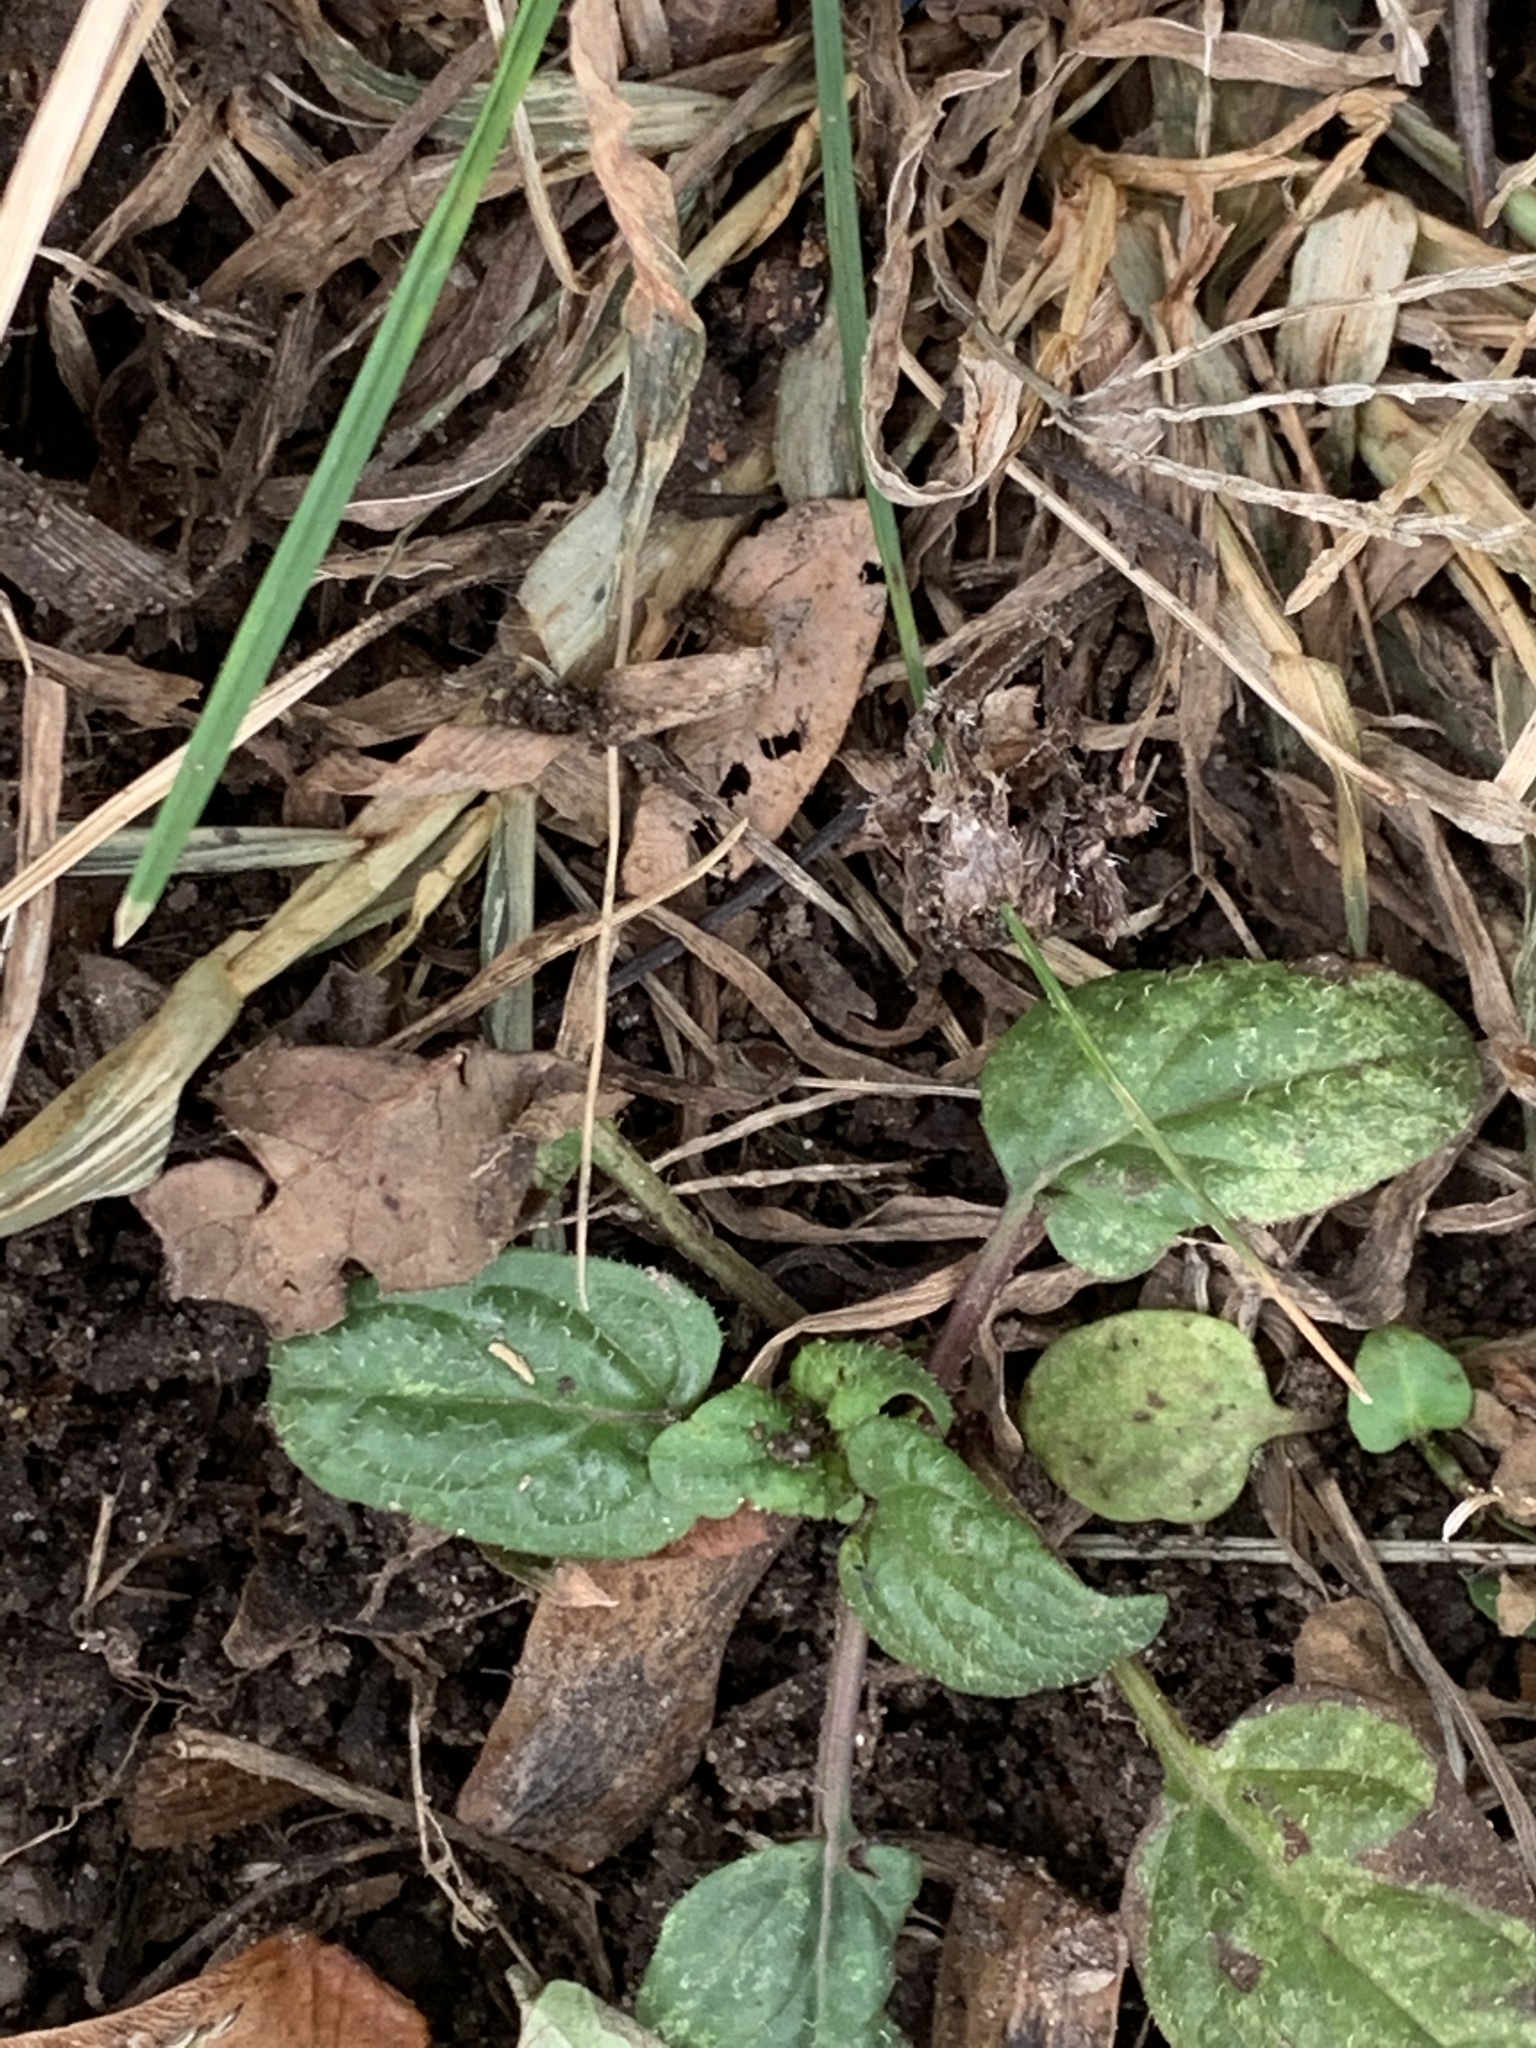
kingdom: Plantae
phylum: Tracheophyta
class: Magnoliopsida
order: Lamiales
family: Lamiaceae
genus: Prunella
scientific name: Prunella vulgaris
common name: Heal-all
